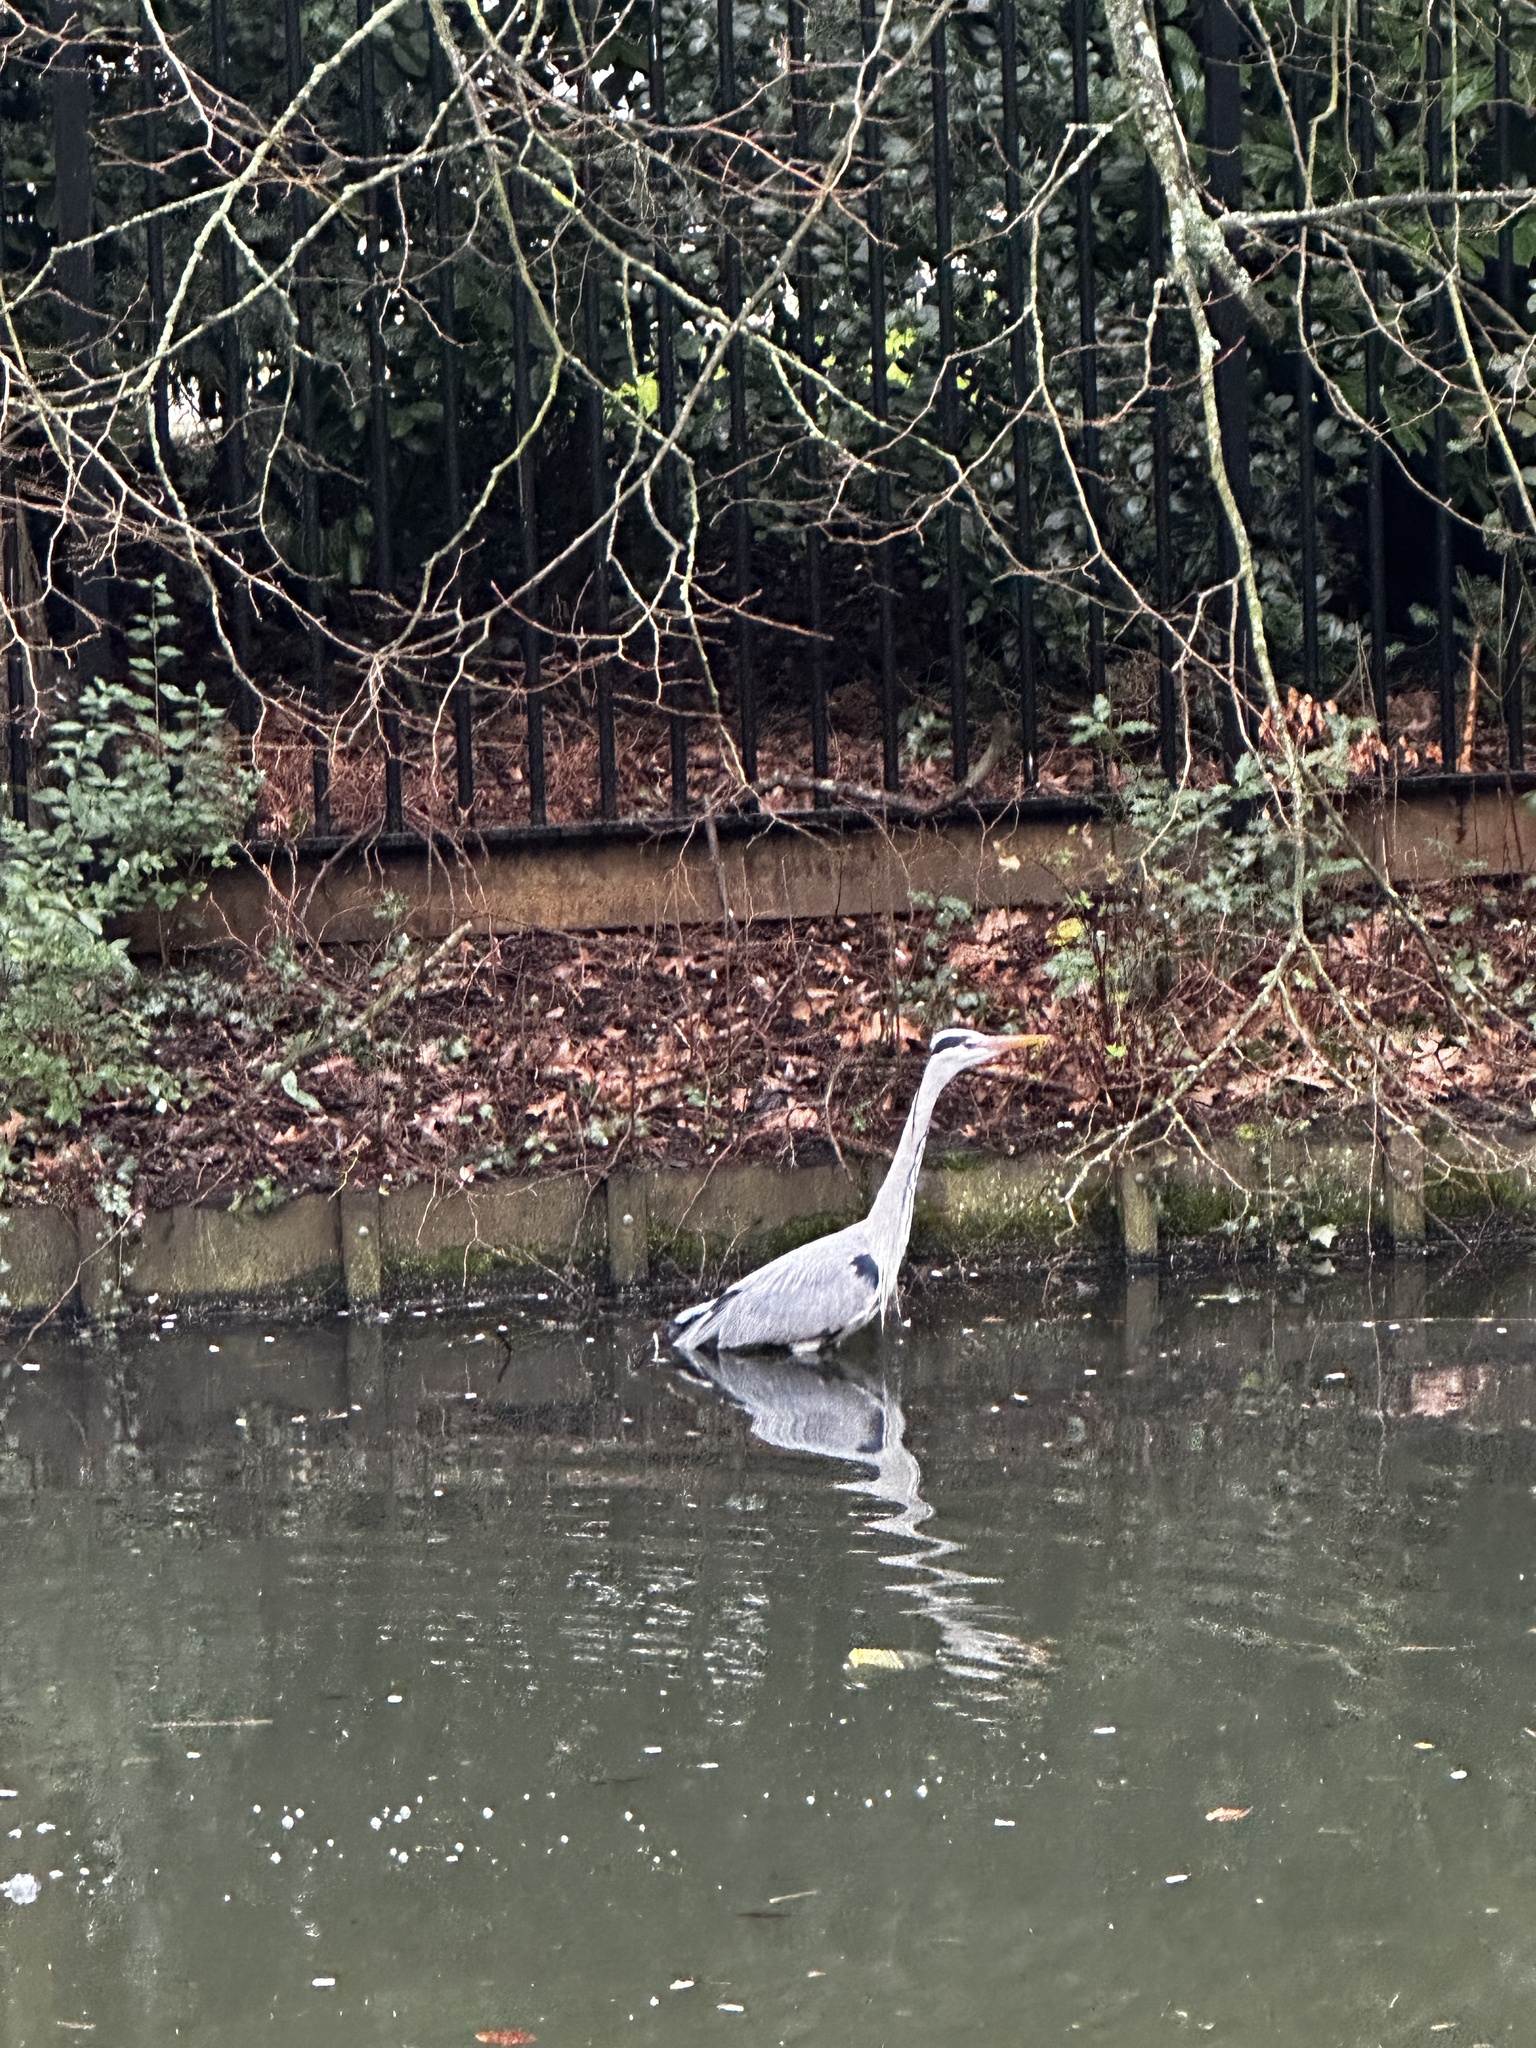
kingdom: Animalia
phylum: Chordata
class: Aves
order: Pelecaniformes
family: Ardeidae
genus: Ardea
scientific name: Ardea cinerea
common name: Grey heron
